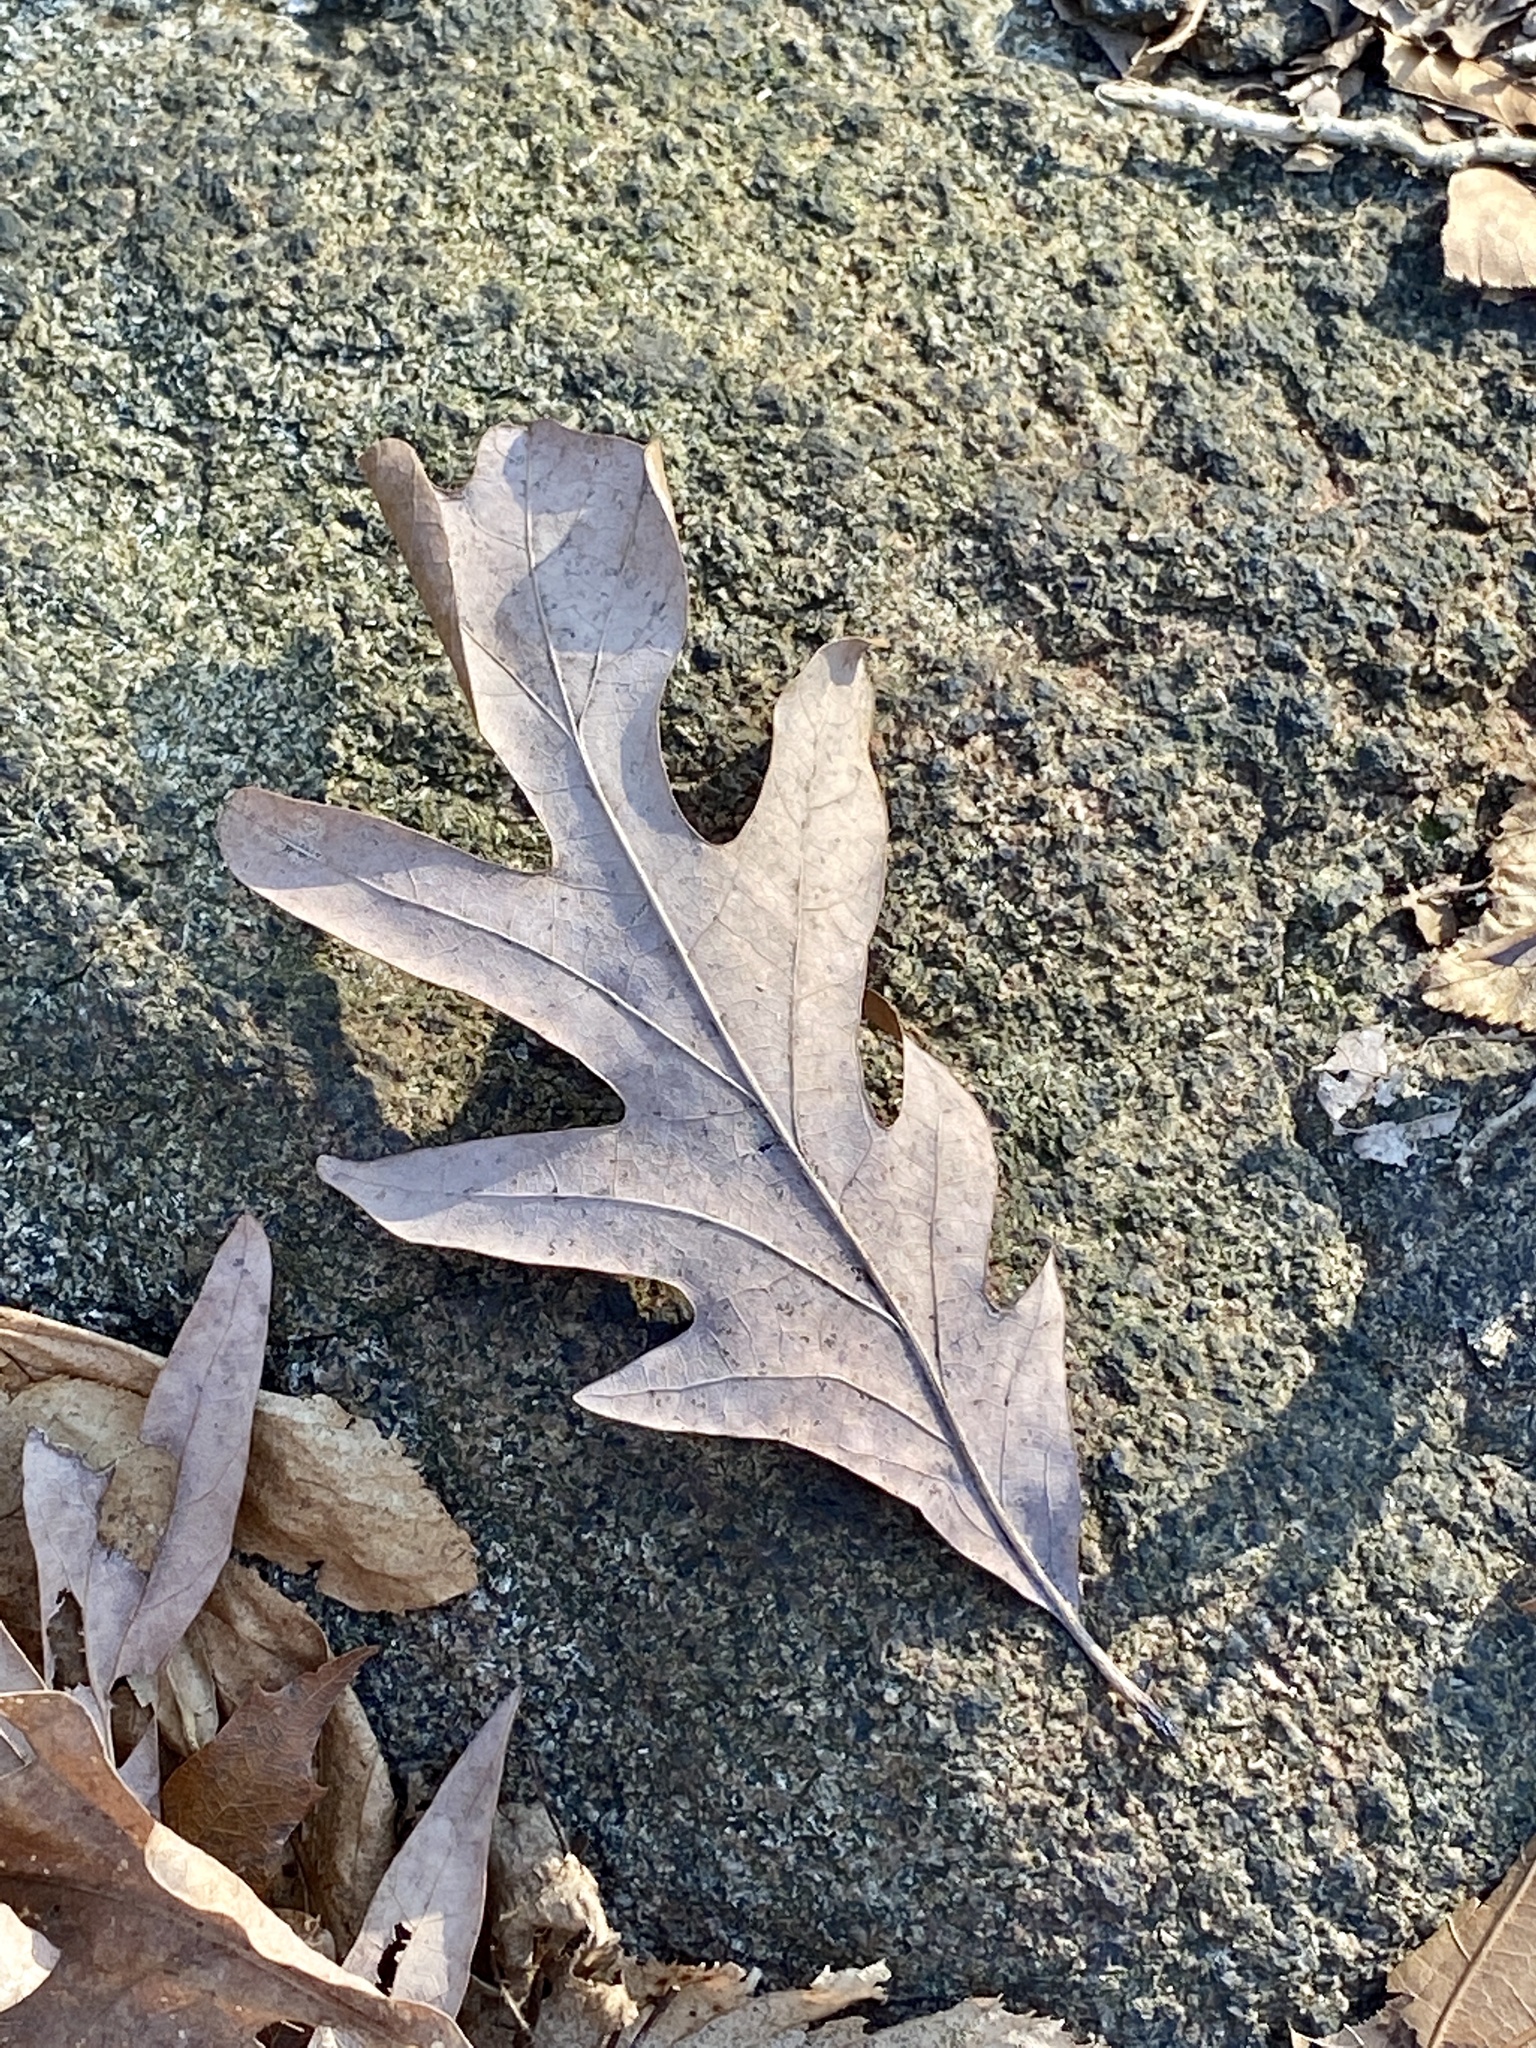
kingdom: Plantae
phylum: Tracheophyta
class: Magnoliopsida
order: Fagales
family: Fagaceae
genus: Quercus
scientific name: Quercus alba
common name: White oak
